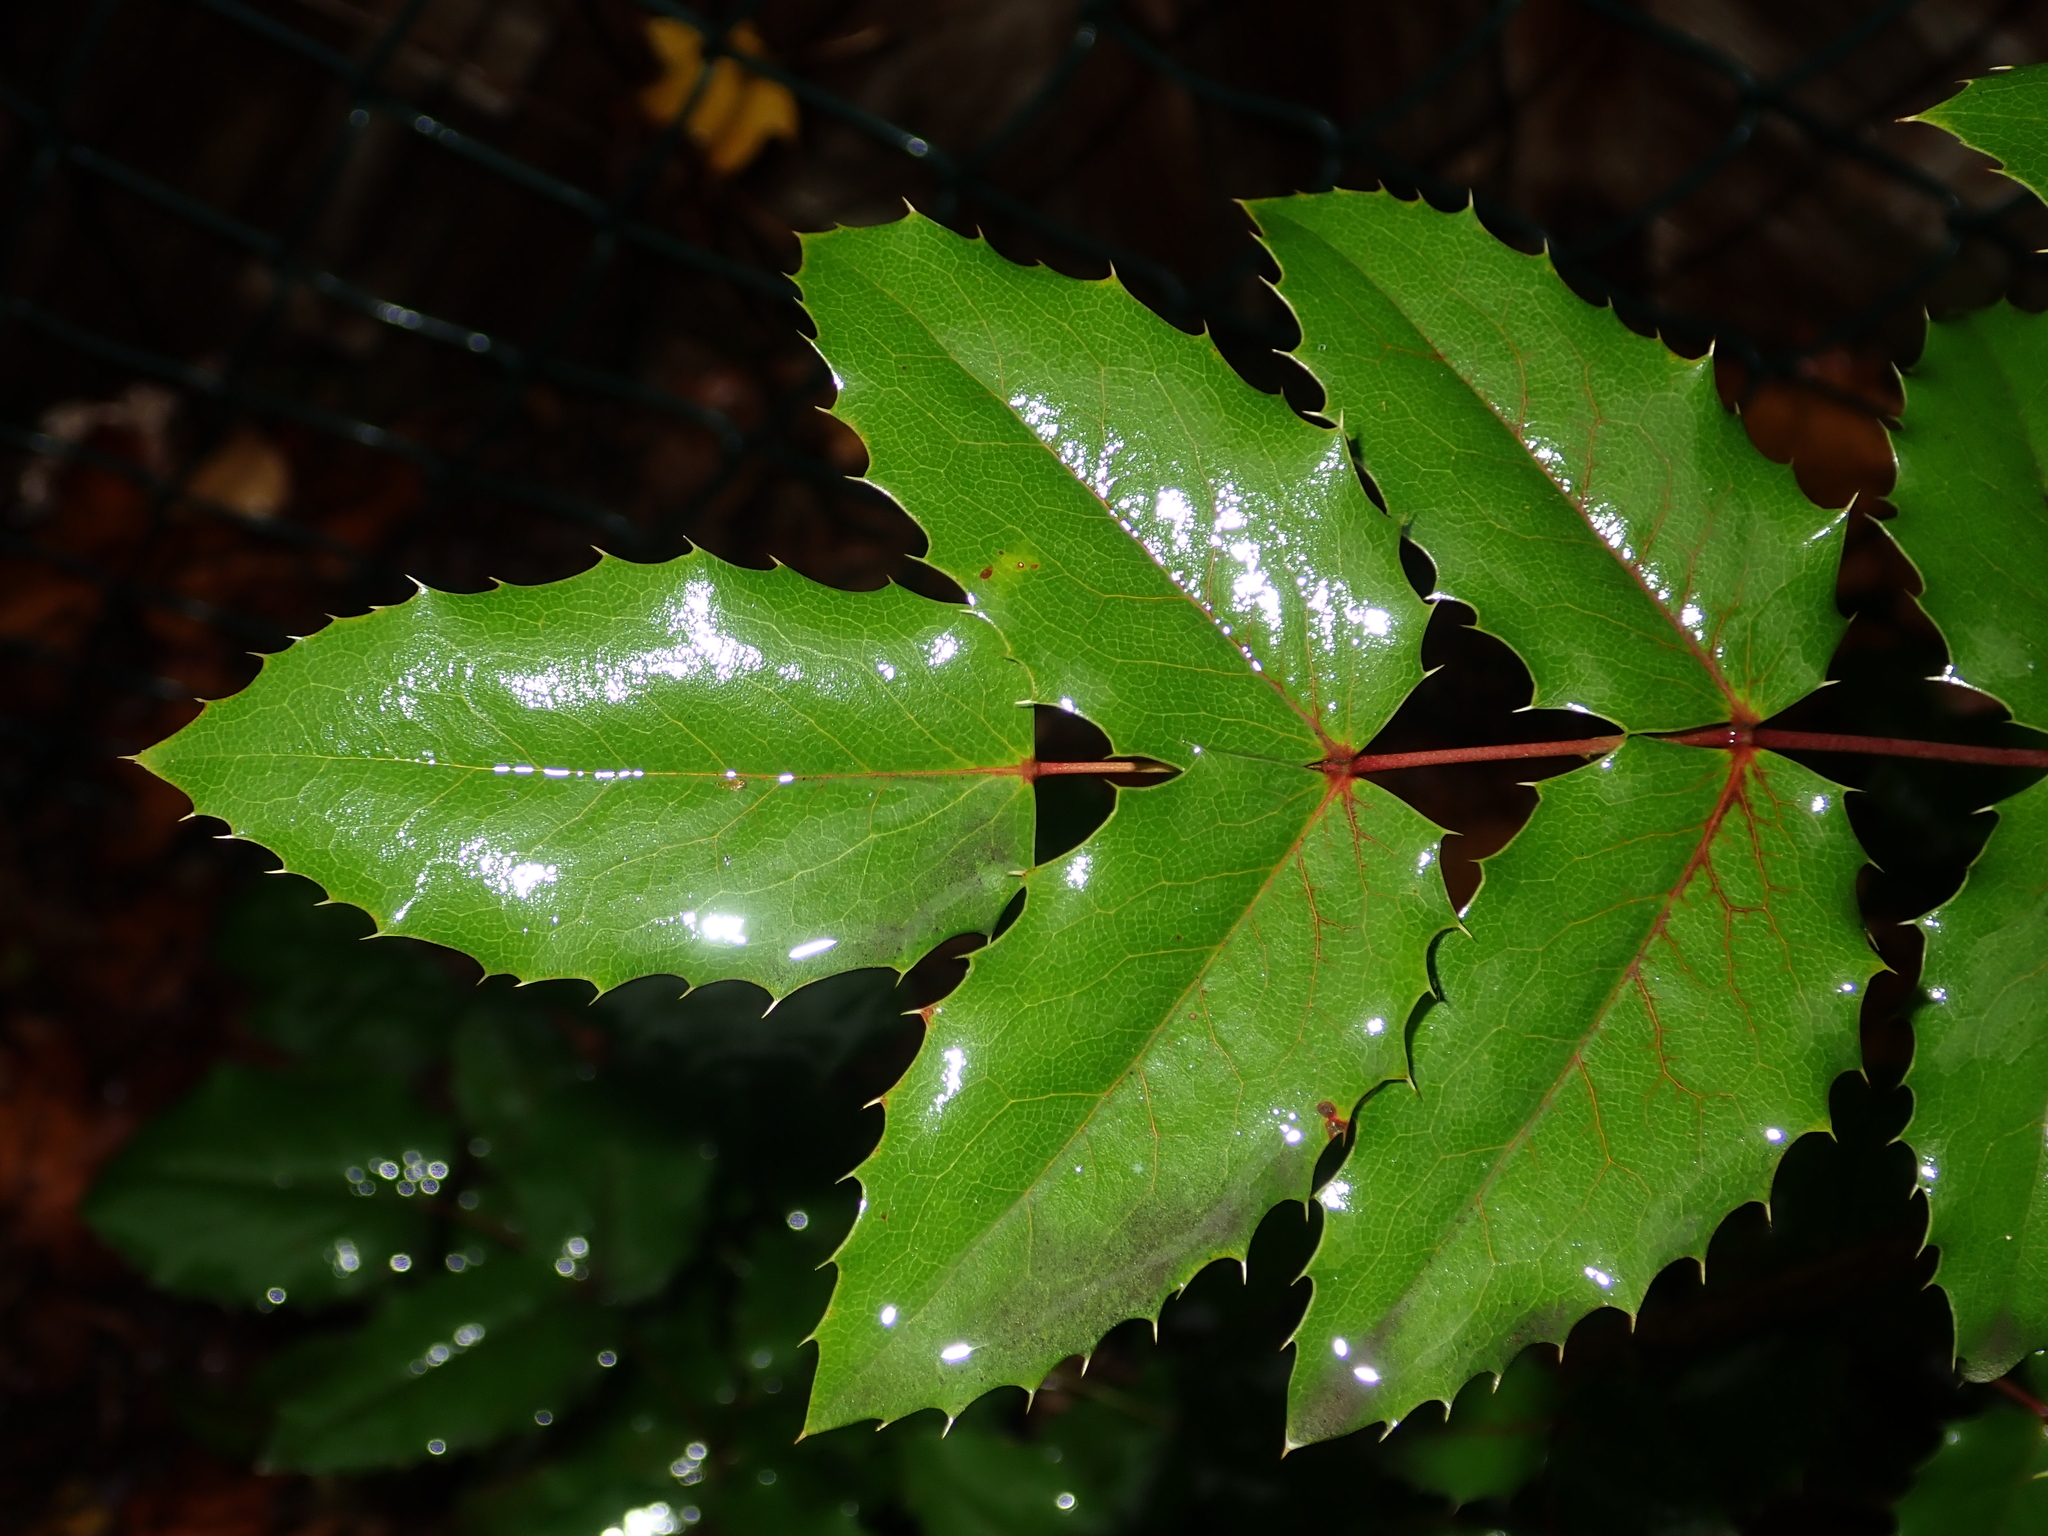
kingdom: Plantae
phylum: Tracheophyta
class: Magnoliopsida
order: Ranunculales
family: Berberidaceae
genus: Mahonia
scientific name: Mahonia aquifolium
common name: Oregon-grape
